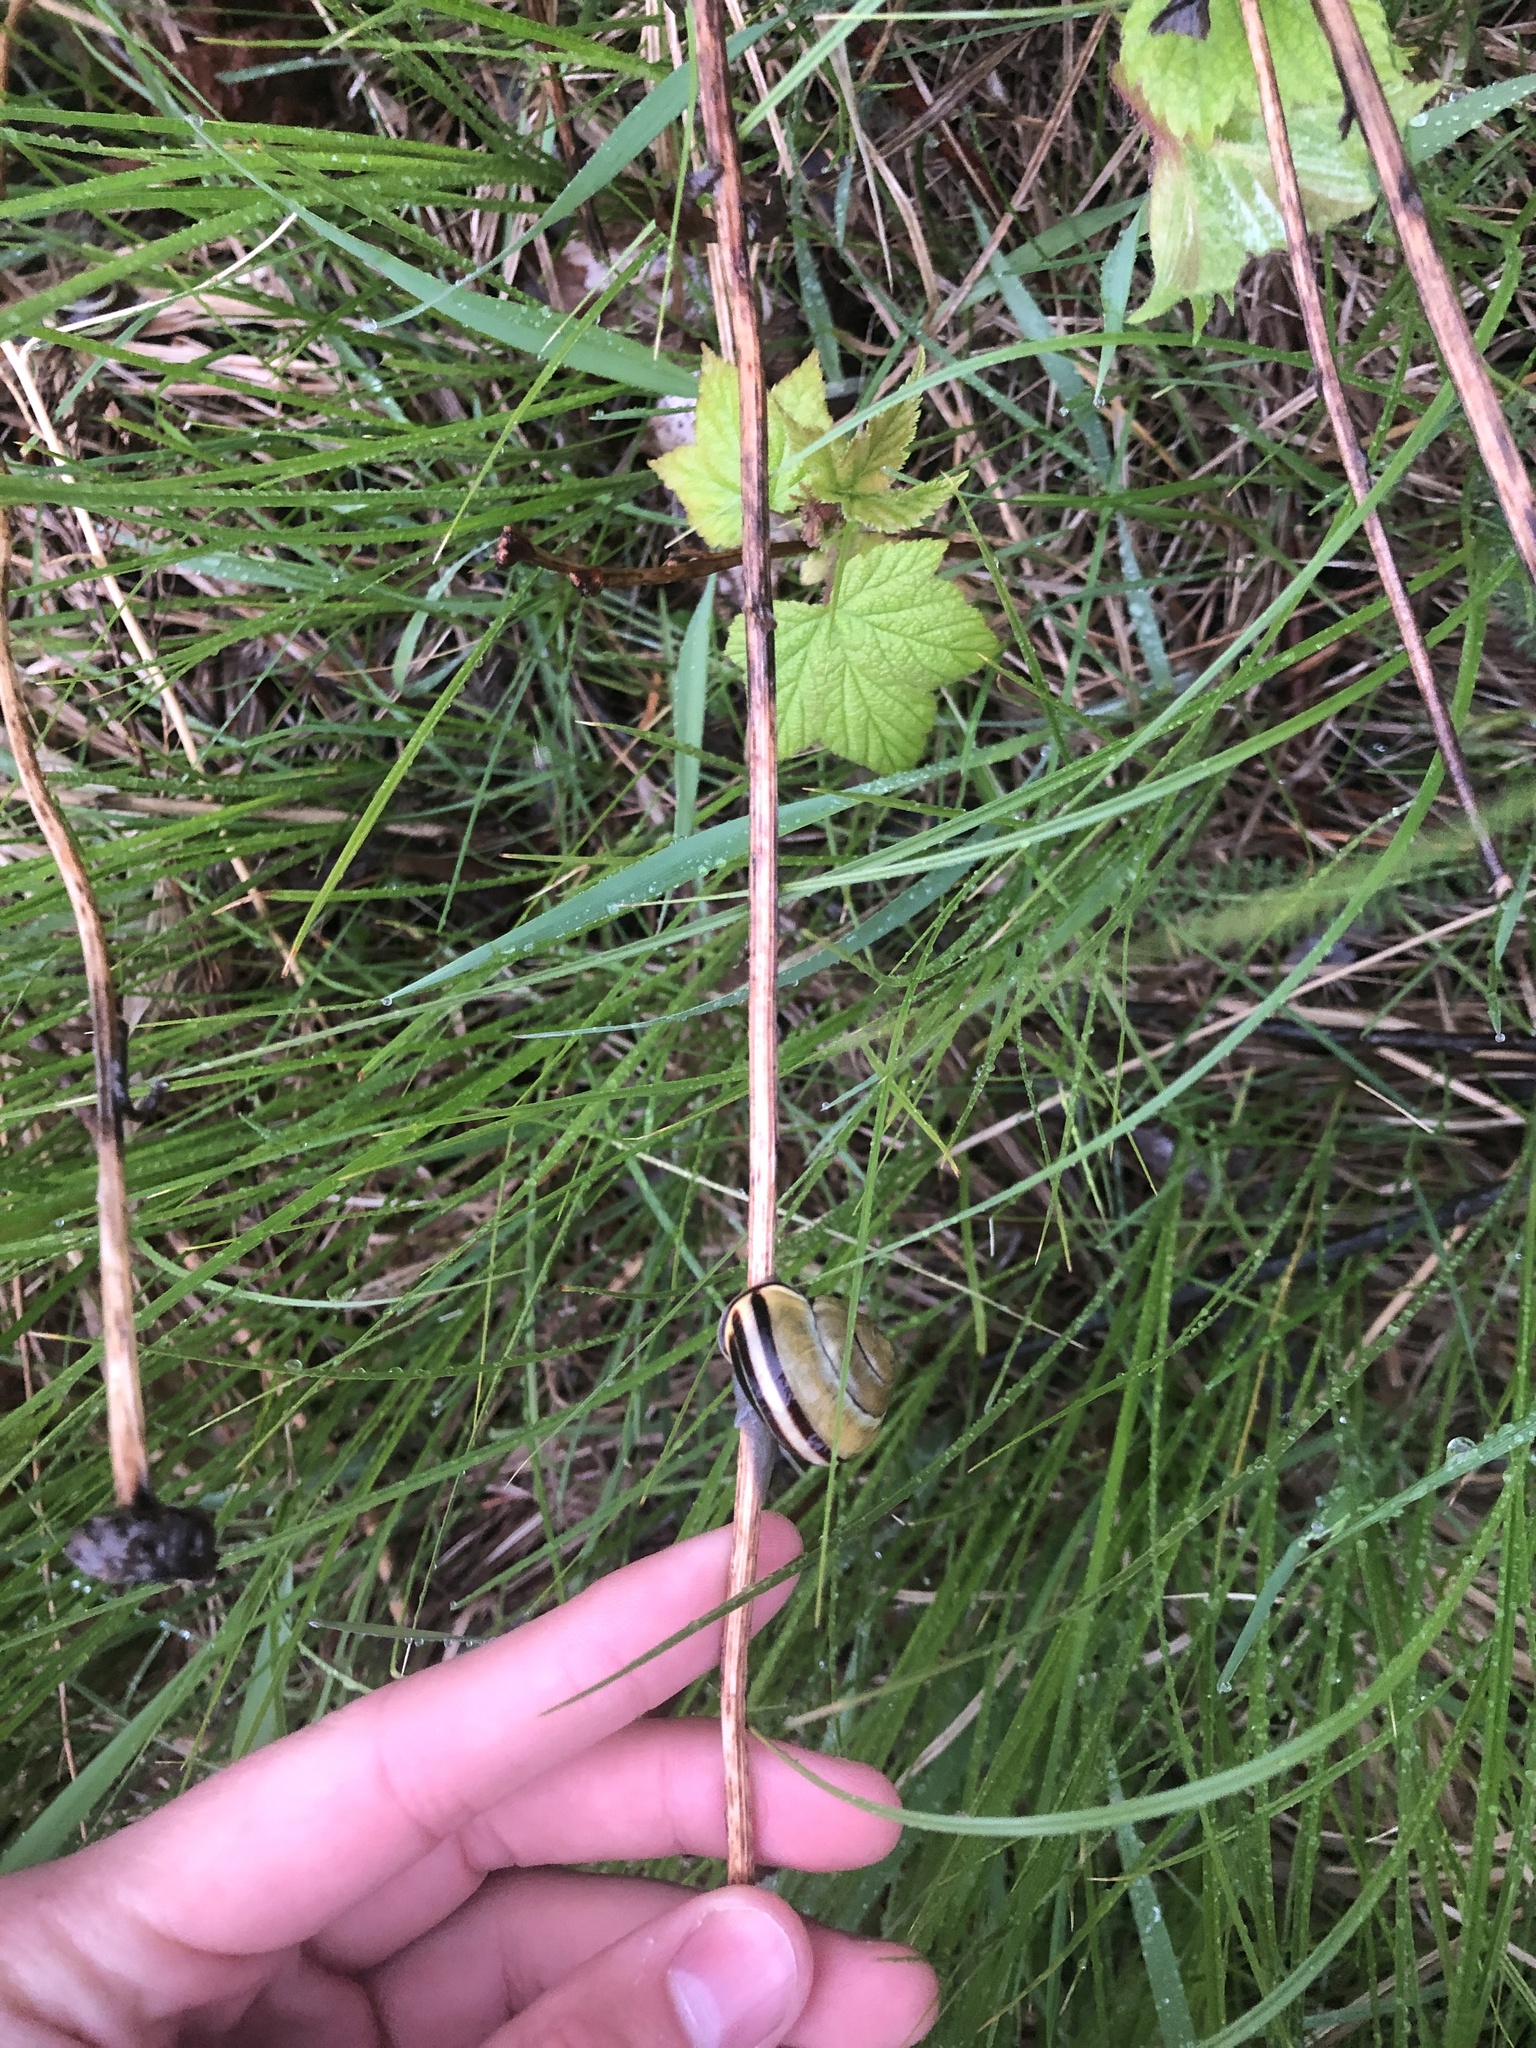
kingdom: Animalia
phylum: Mollusca
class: Gastropoda
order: Stylommatophora
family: Helicidae
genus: Cepaea
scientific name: Cepaea nemoralis
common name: Grovesnail
